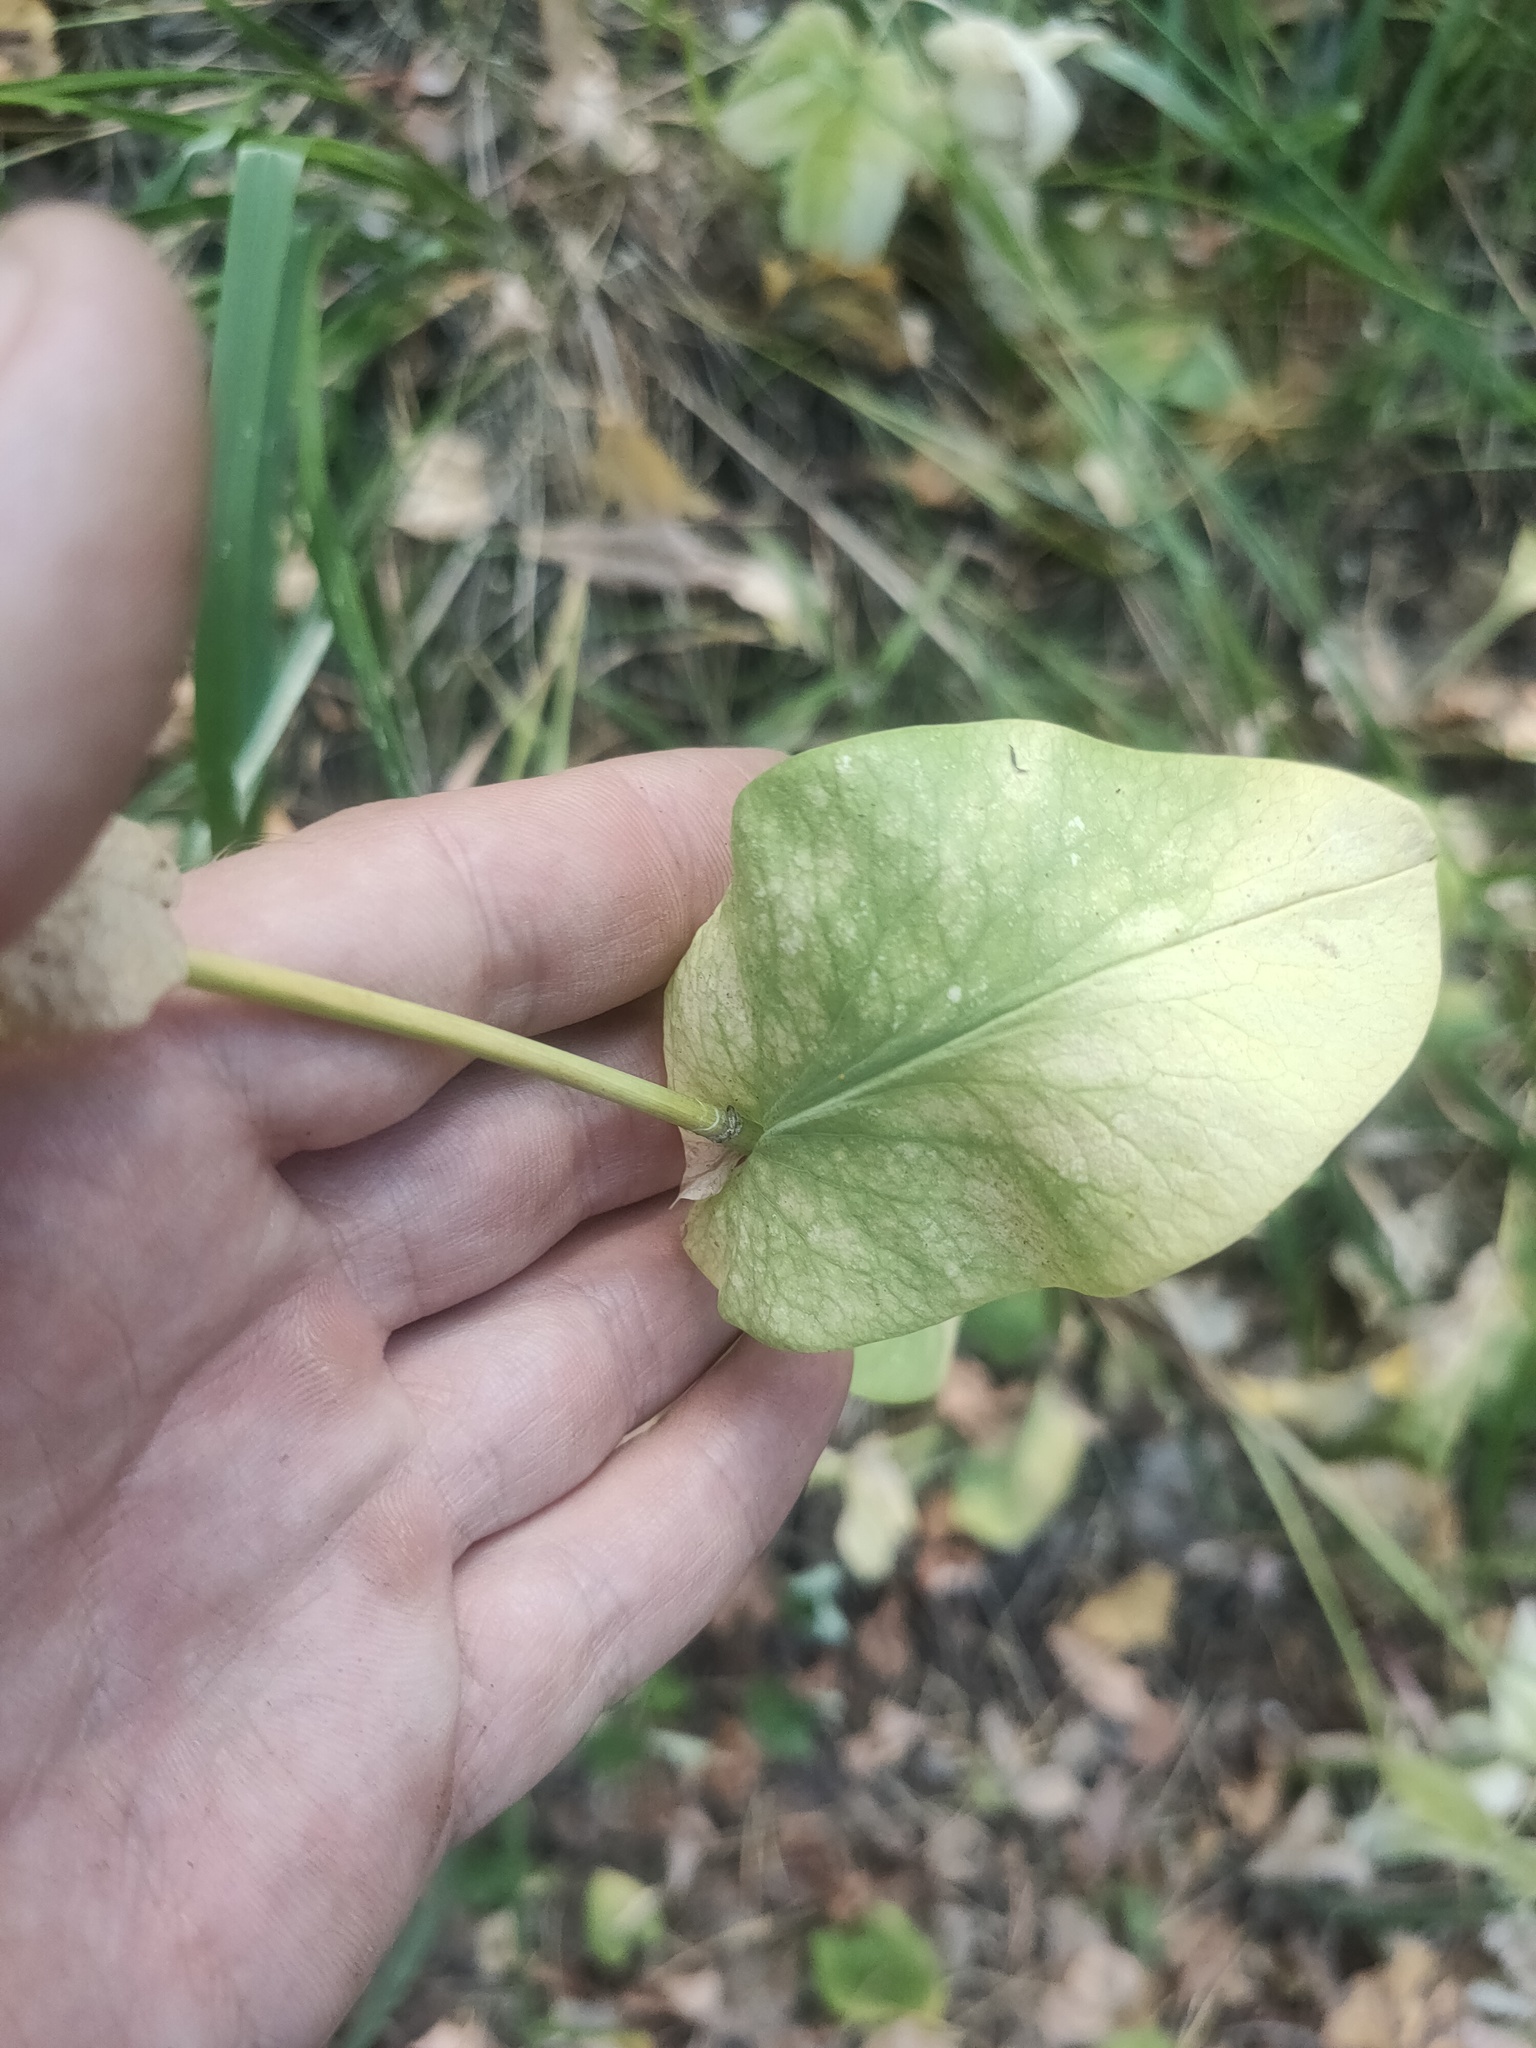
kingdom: Plantae
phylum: Tracheophyta
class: Magnoliopsida
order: Apiales
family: Apiaceae
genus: Bupleurum
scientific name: Bupleurum aureum
